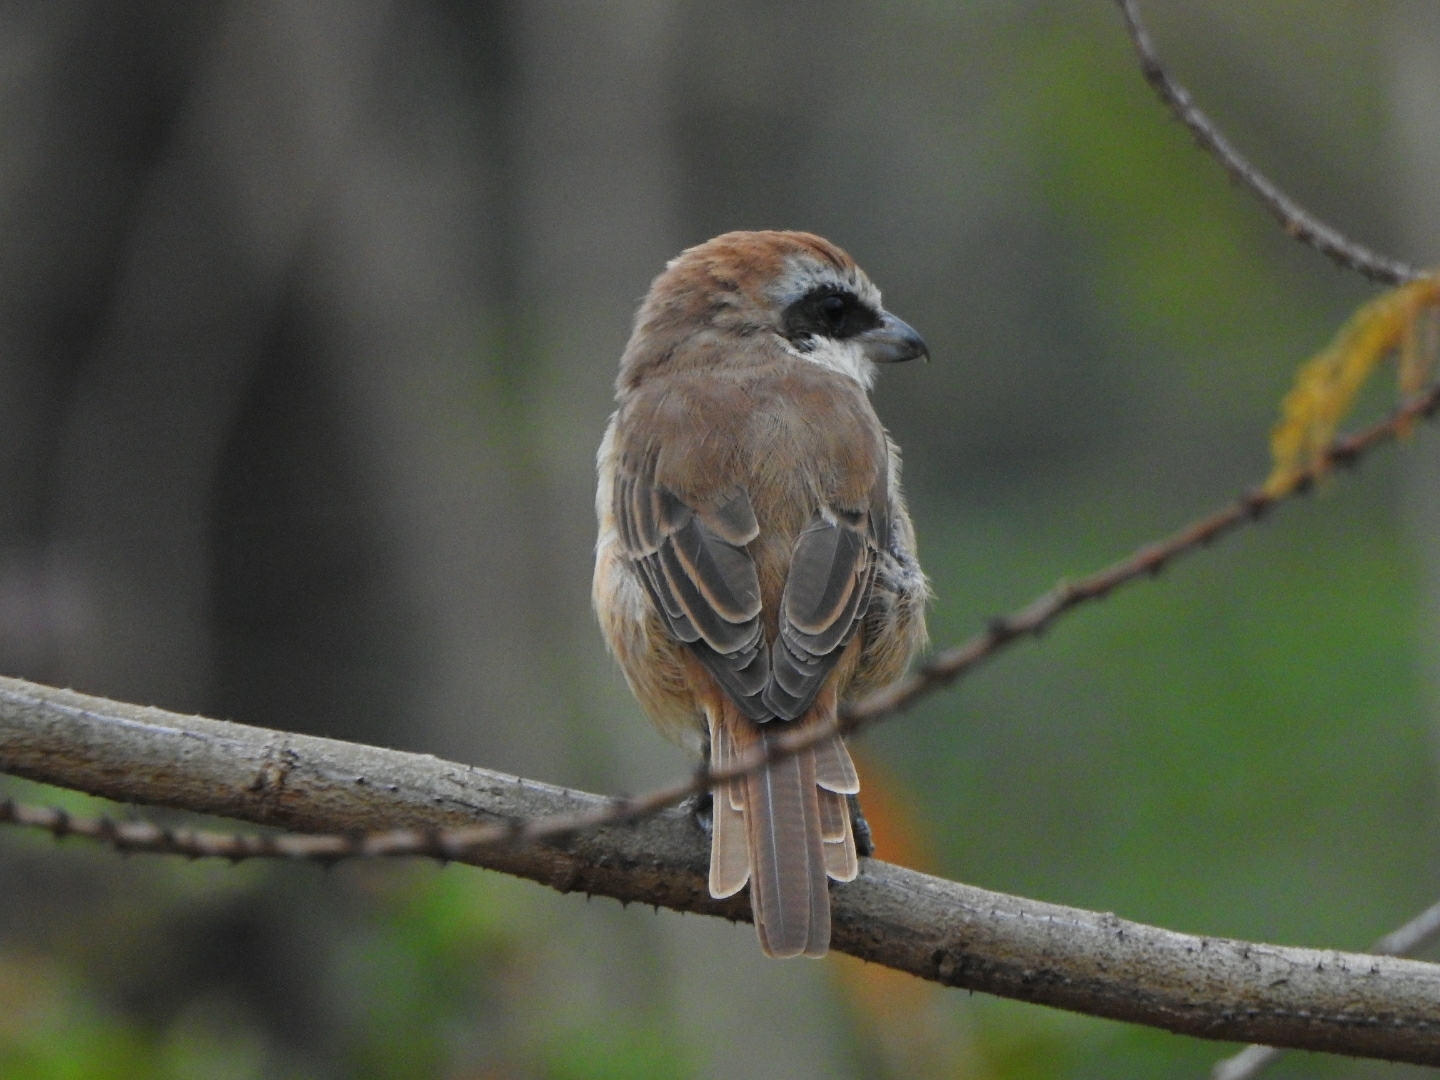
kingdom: Animalia
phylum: Chordata
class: Aves
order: Passeriformes
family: Laniidae
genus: Lanius
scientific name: Lanius cristatus
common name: Brown shrike
